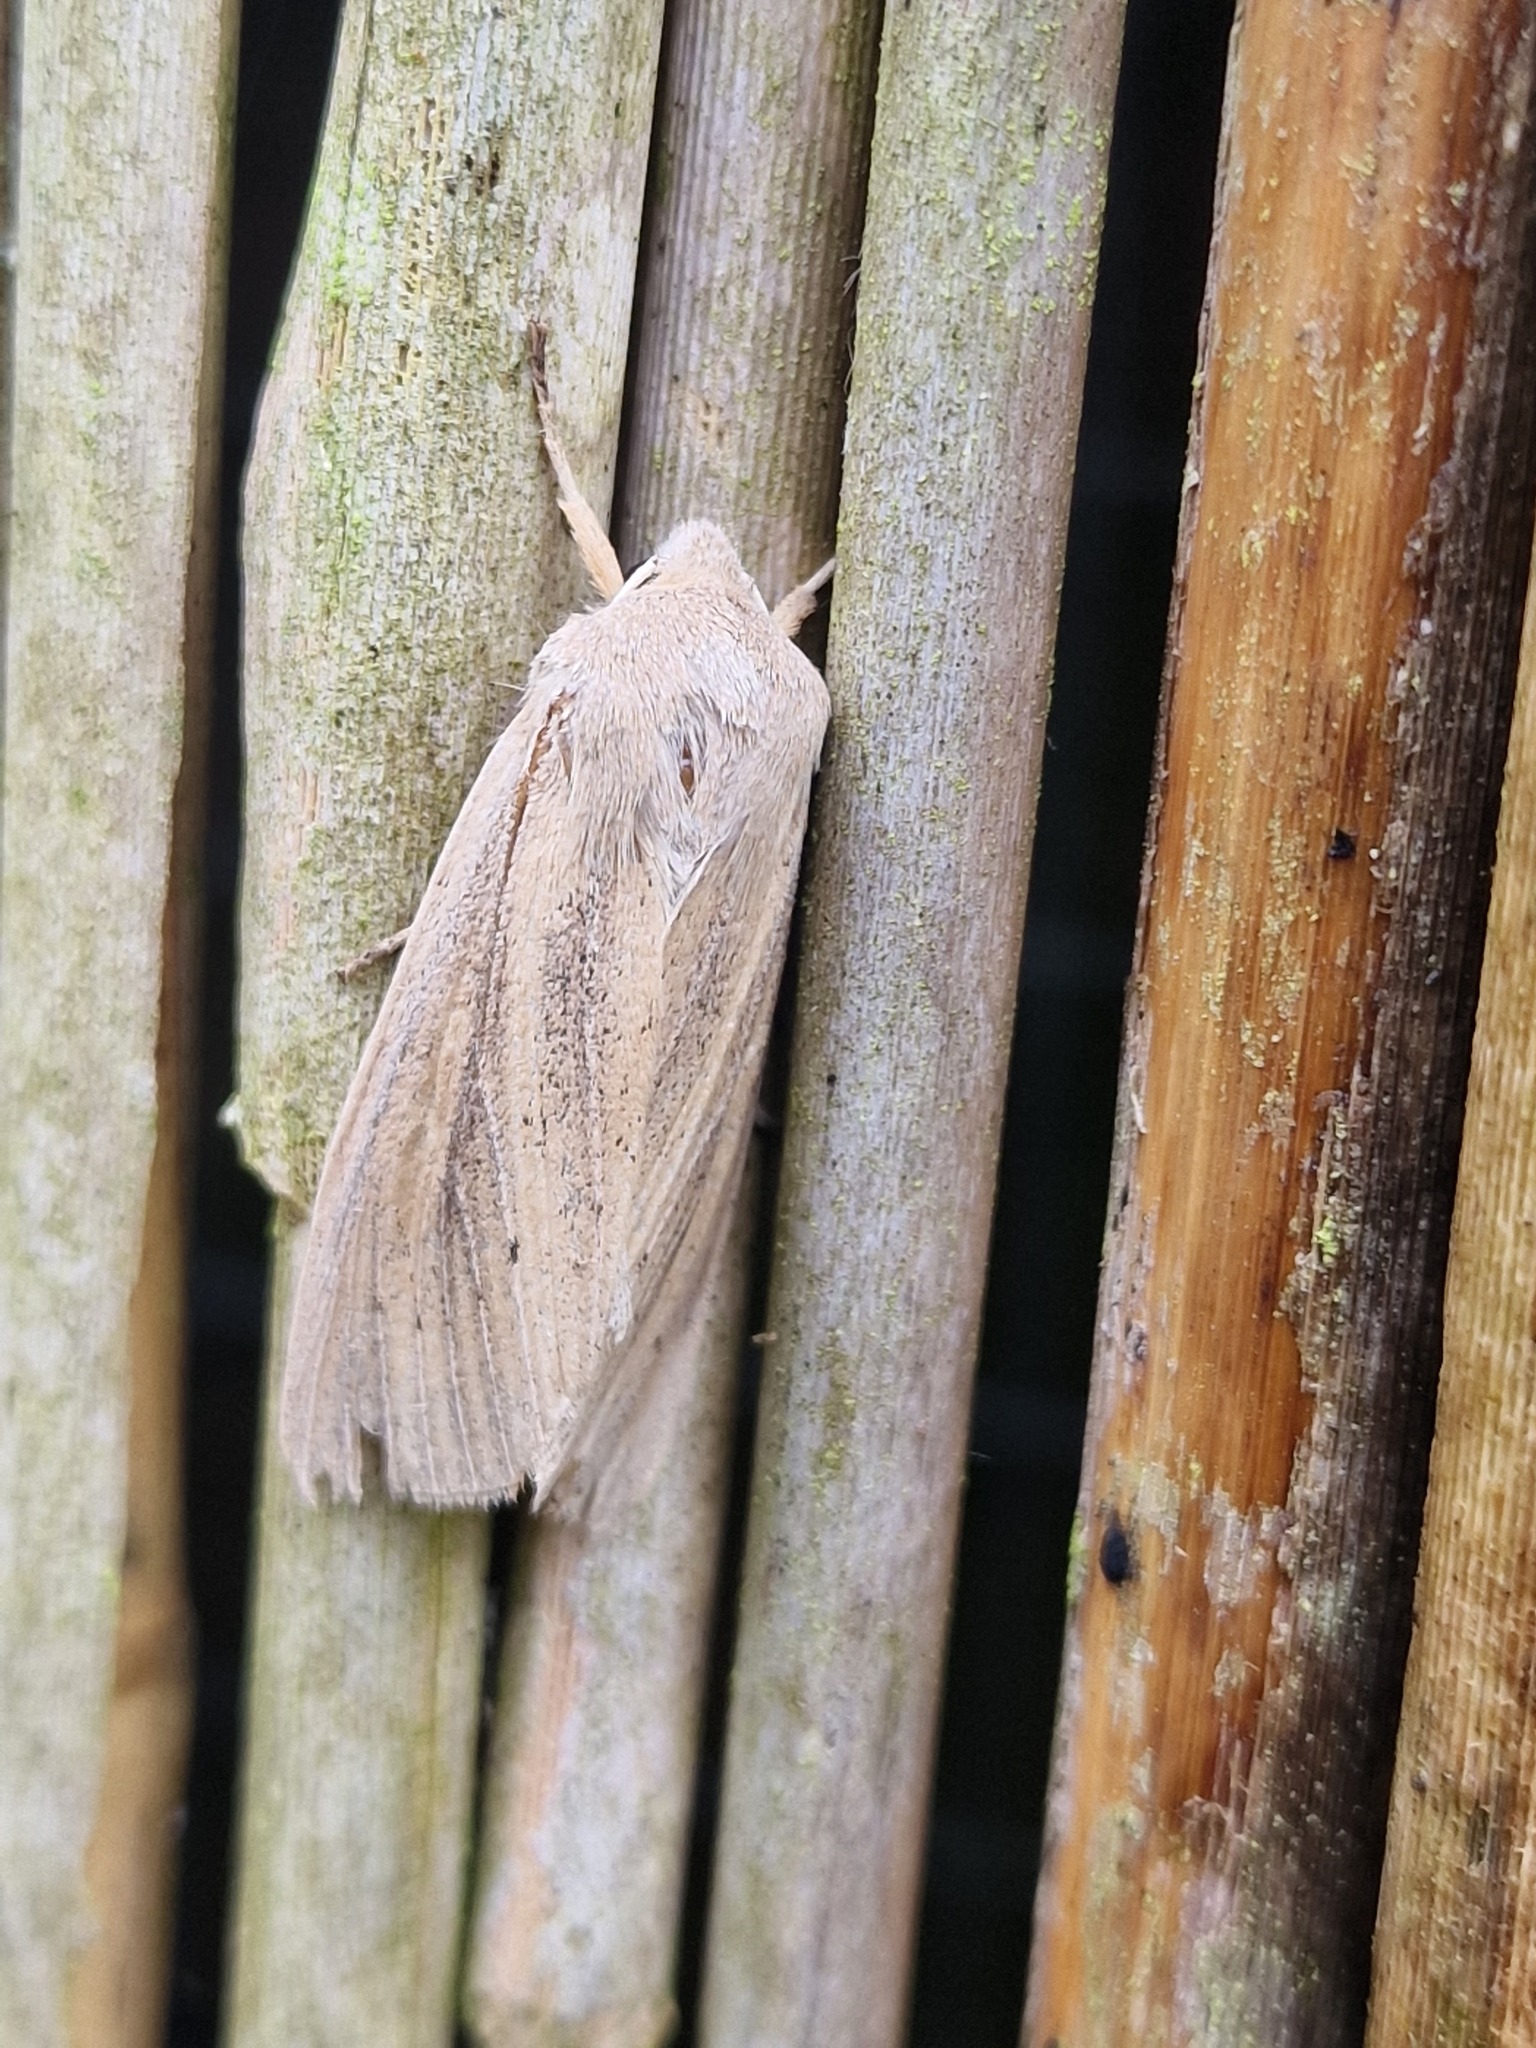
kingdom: Animalia
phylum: Arthropoda
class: Insecta
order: Lepidoptera
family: Noctuidae
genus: Rhizedra
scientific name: Rhizedra lutosa
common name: Large wainscot
